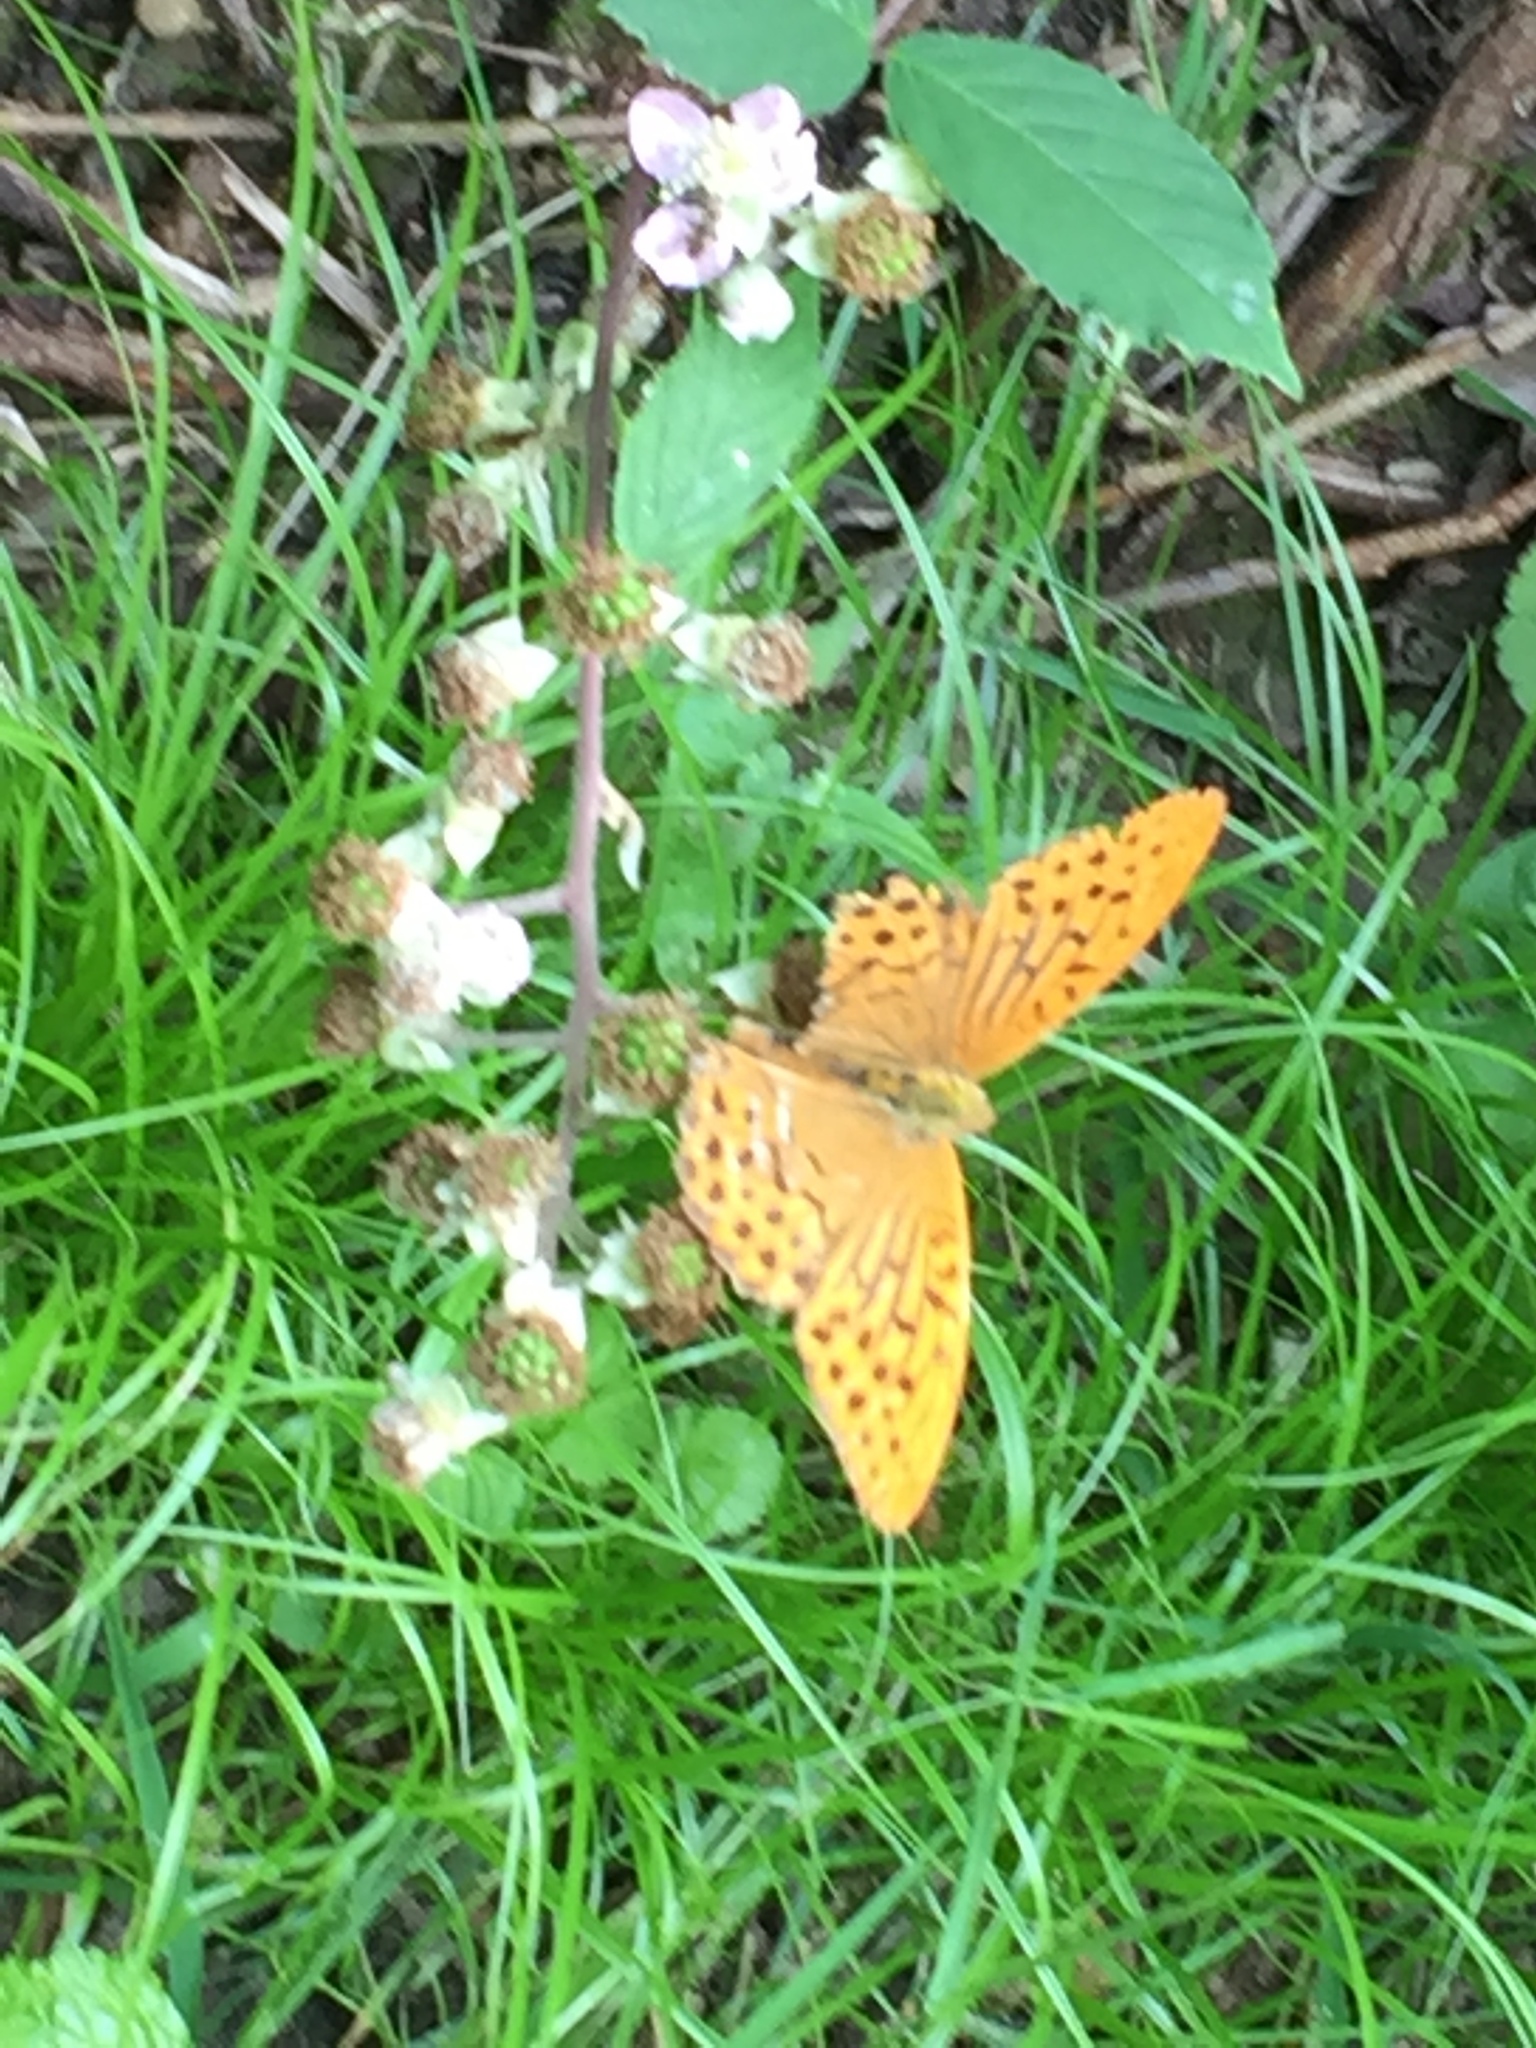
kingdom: Animalia
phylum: Arthropoda
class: Insecta
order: Lepidoptera
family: Nymphalidae
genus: Argynnis
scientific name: Argynnis paphia
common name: Silver-washed fritillary
